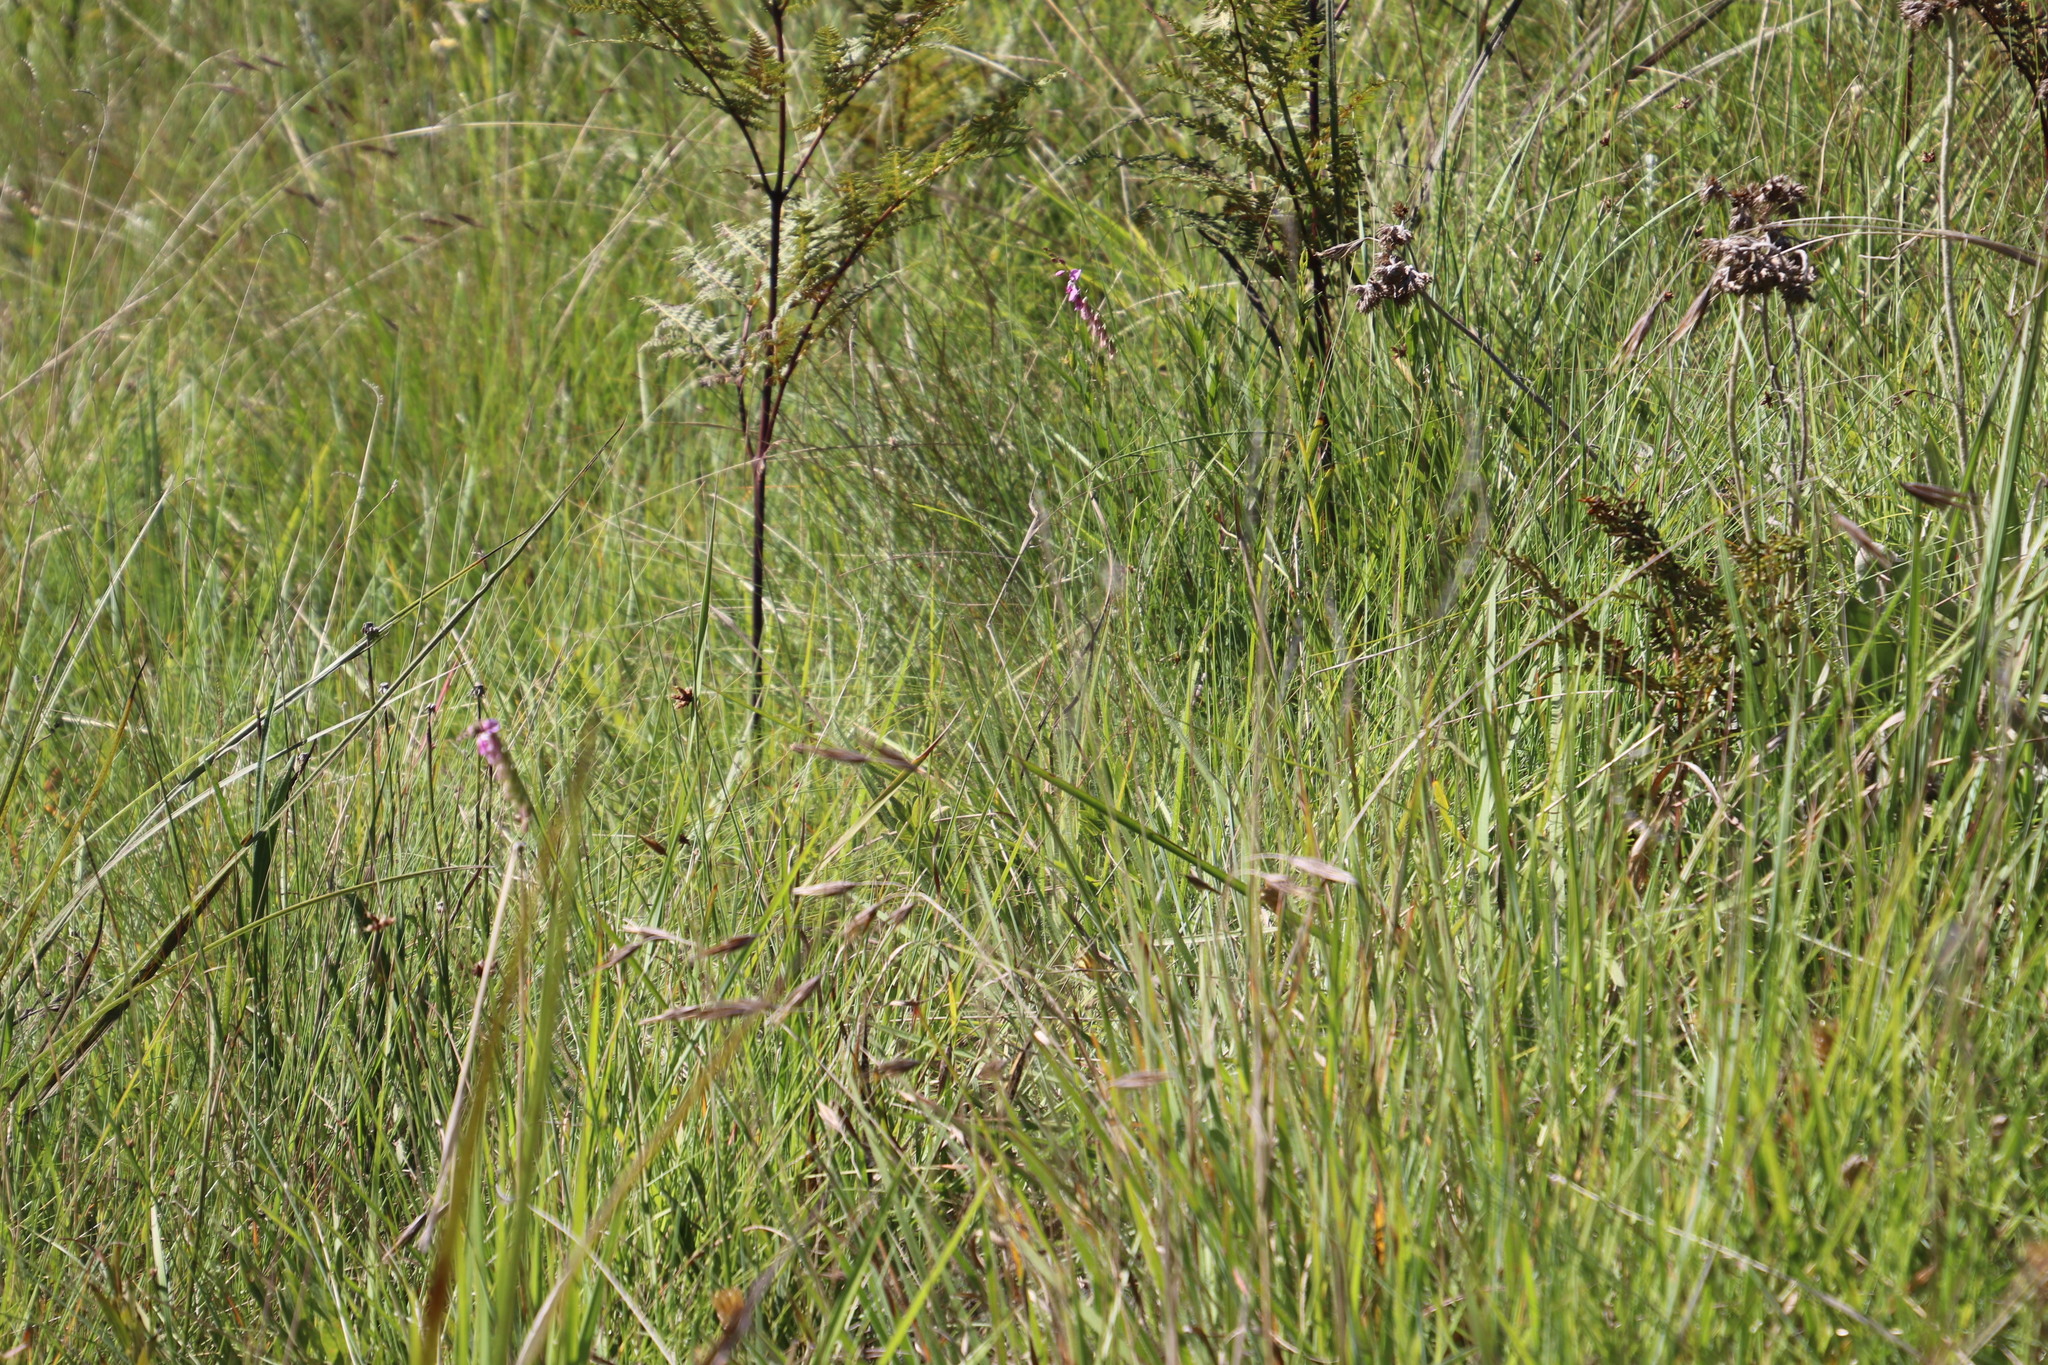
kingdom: Plantae
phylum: Tracheophyta
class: Magnoliopsida
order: Fabales
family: Polygalaceae
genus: Polygala
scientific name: Polygala virgata
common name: Milkwort
